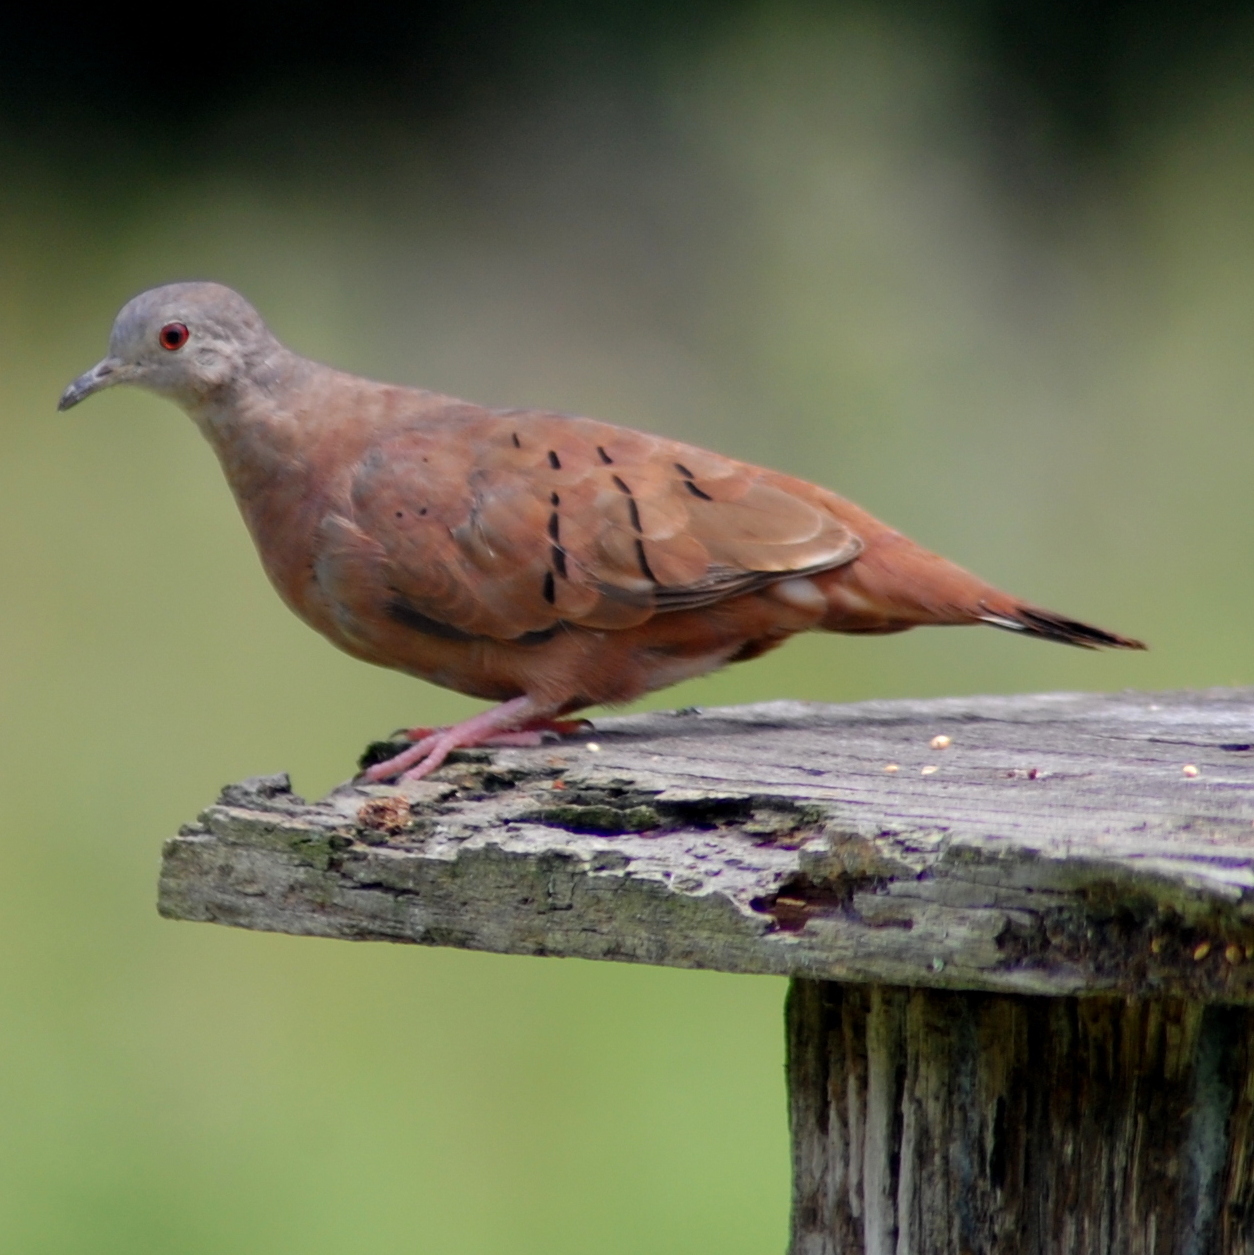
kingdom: Animalia
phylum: Chordata
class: Aves
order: Columbiformes
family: Columbidae
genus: Columbina
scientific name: Columbina talpacoti
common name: Ruddy ground dove
